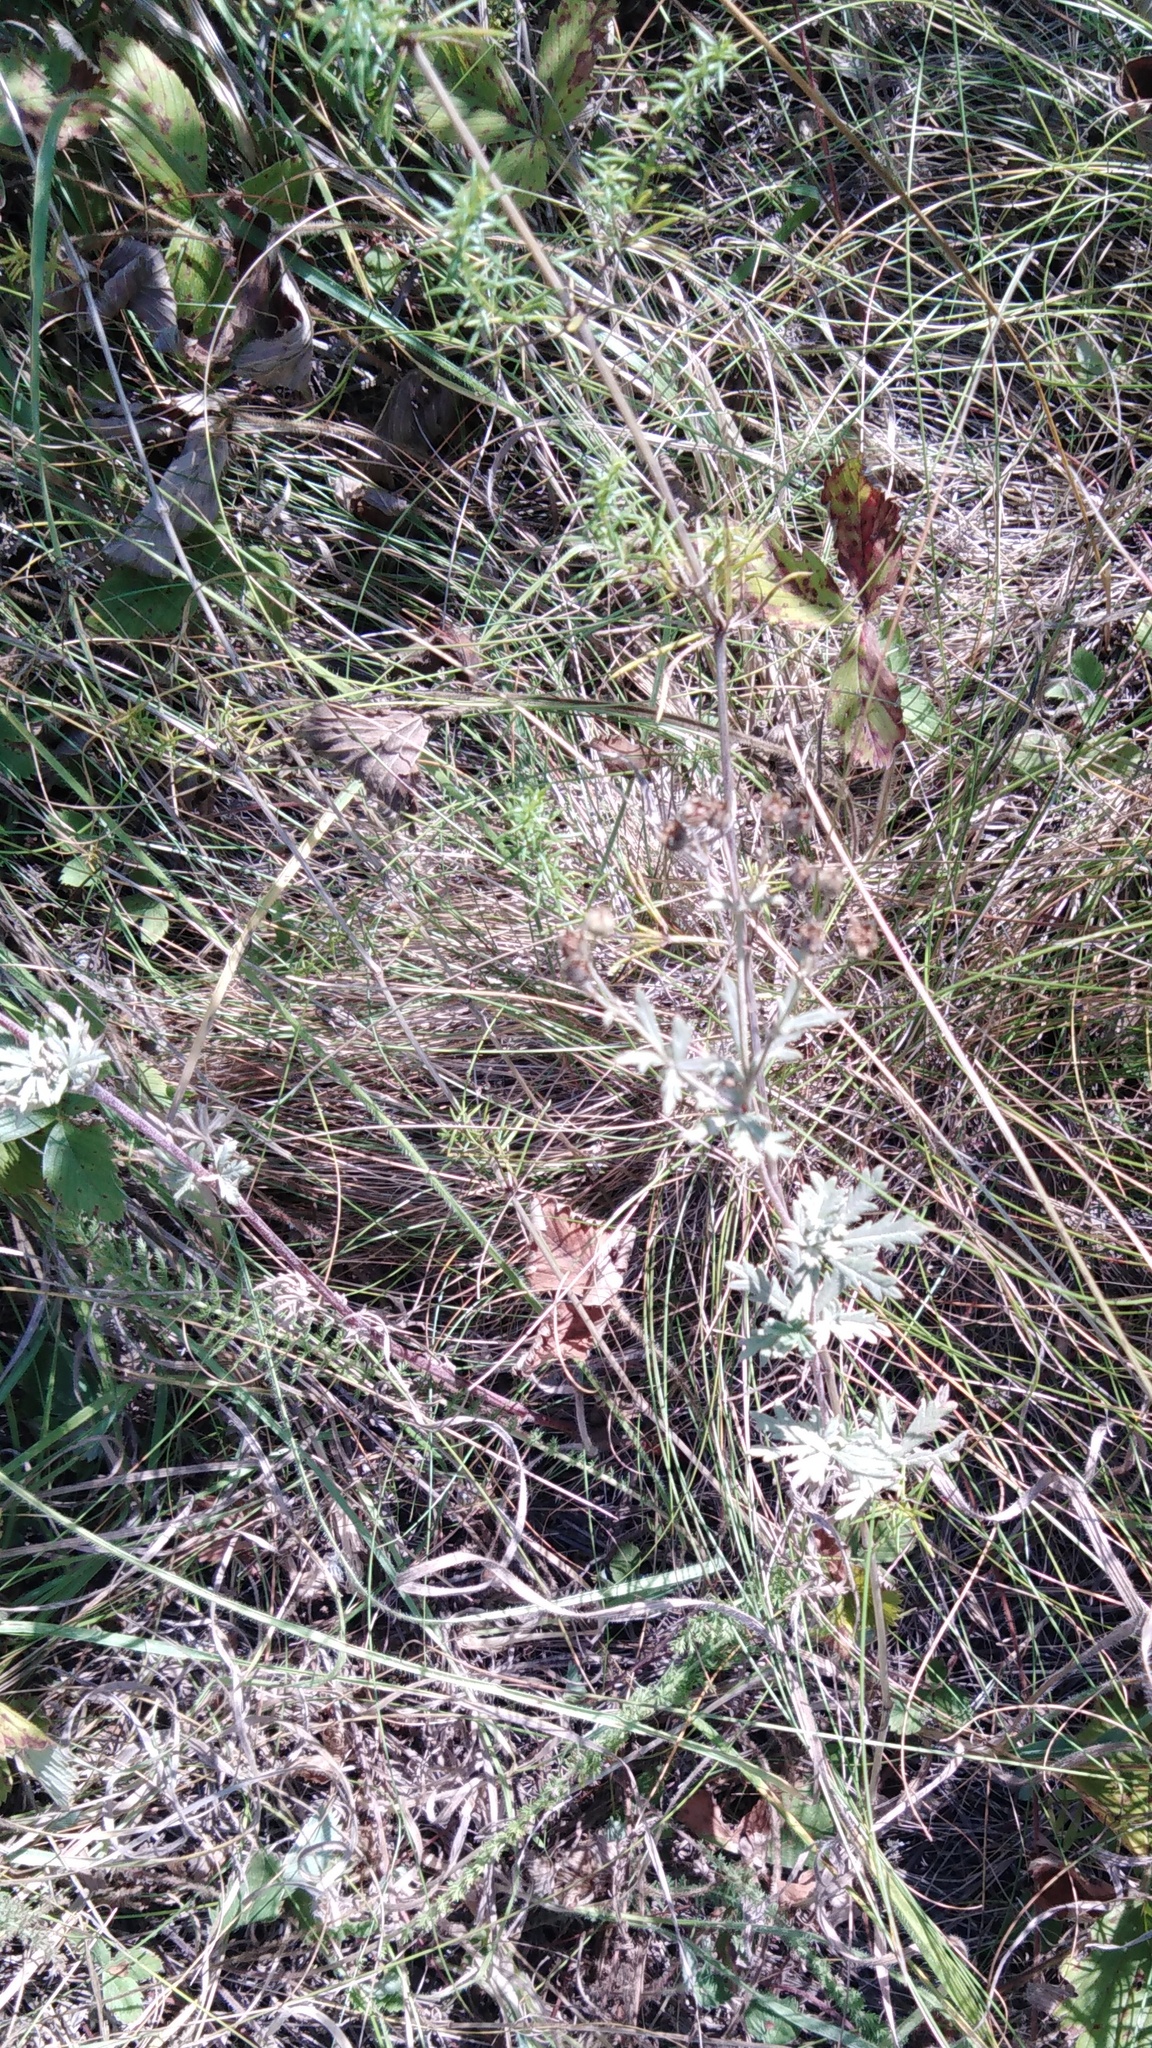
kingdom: Plantae
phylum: Tracheophyta
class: Magnoliopsida
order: Rosales
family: Rosaceae
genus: Potentilla
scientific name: Potentilla argentea
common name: Hoary cinquefoil
